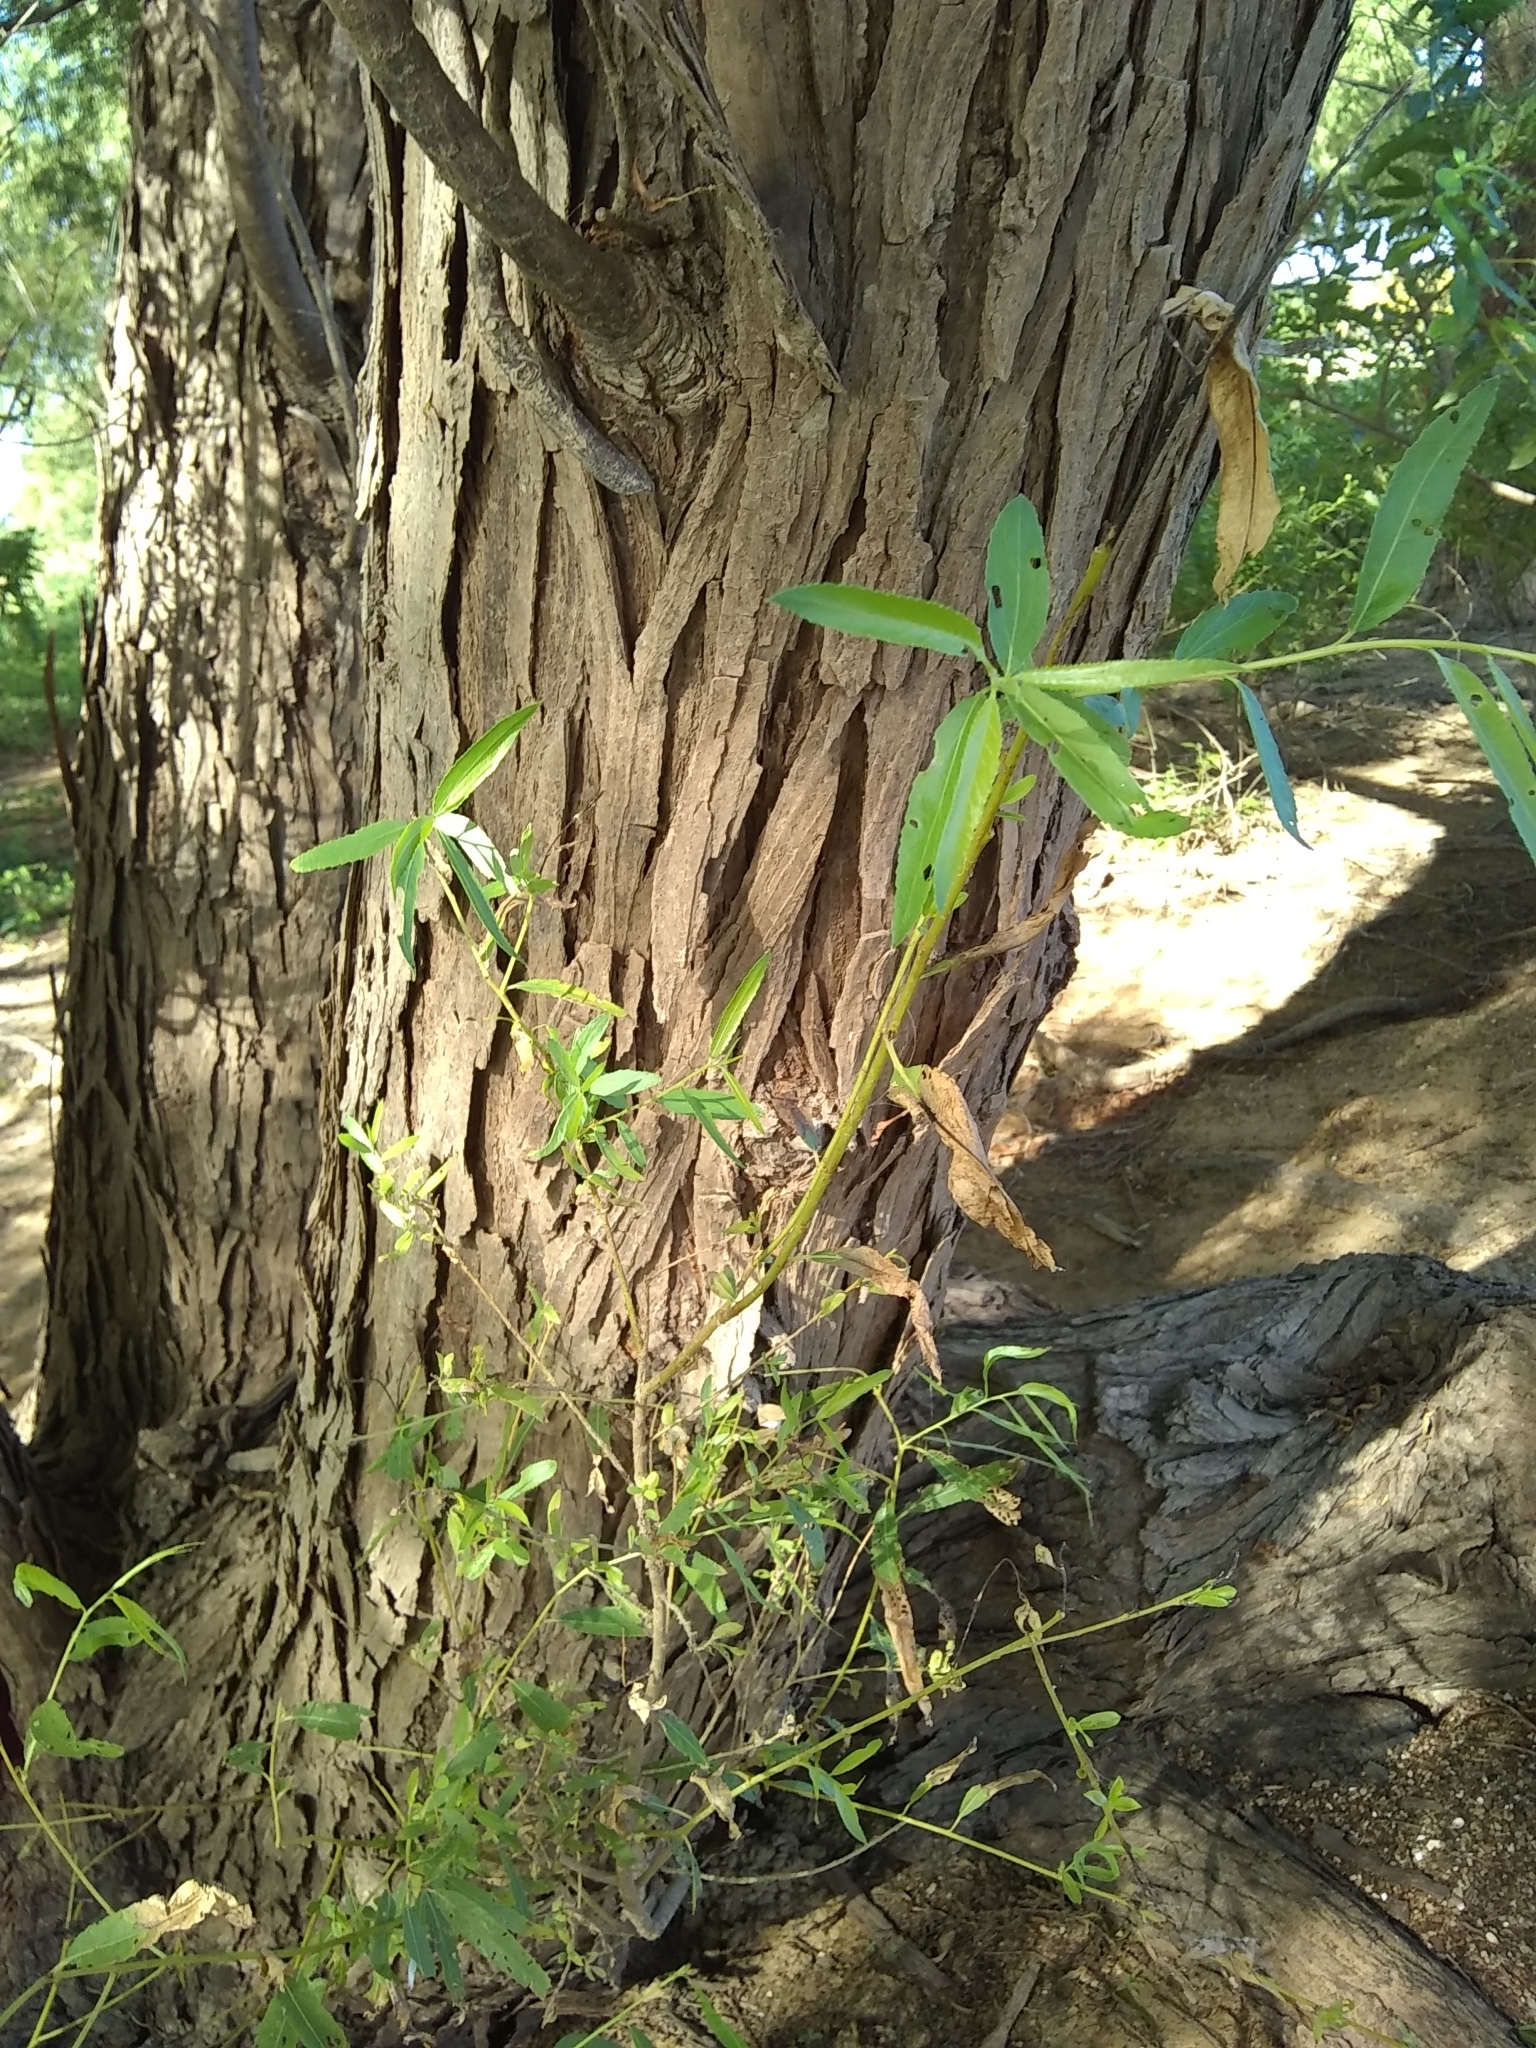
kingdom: Plantae
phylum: Tracheophyta
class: Magnoliopsida
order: Malpighiales
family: Salicaceae
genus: Salix
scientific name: Salix nigra
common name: Black willow
